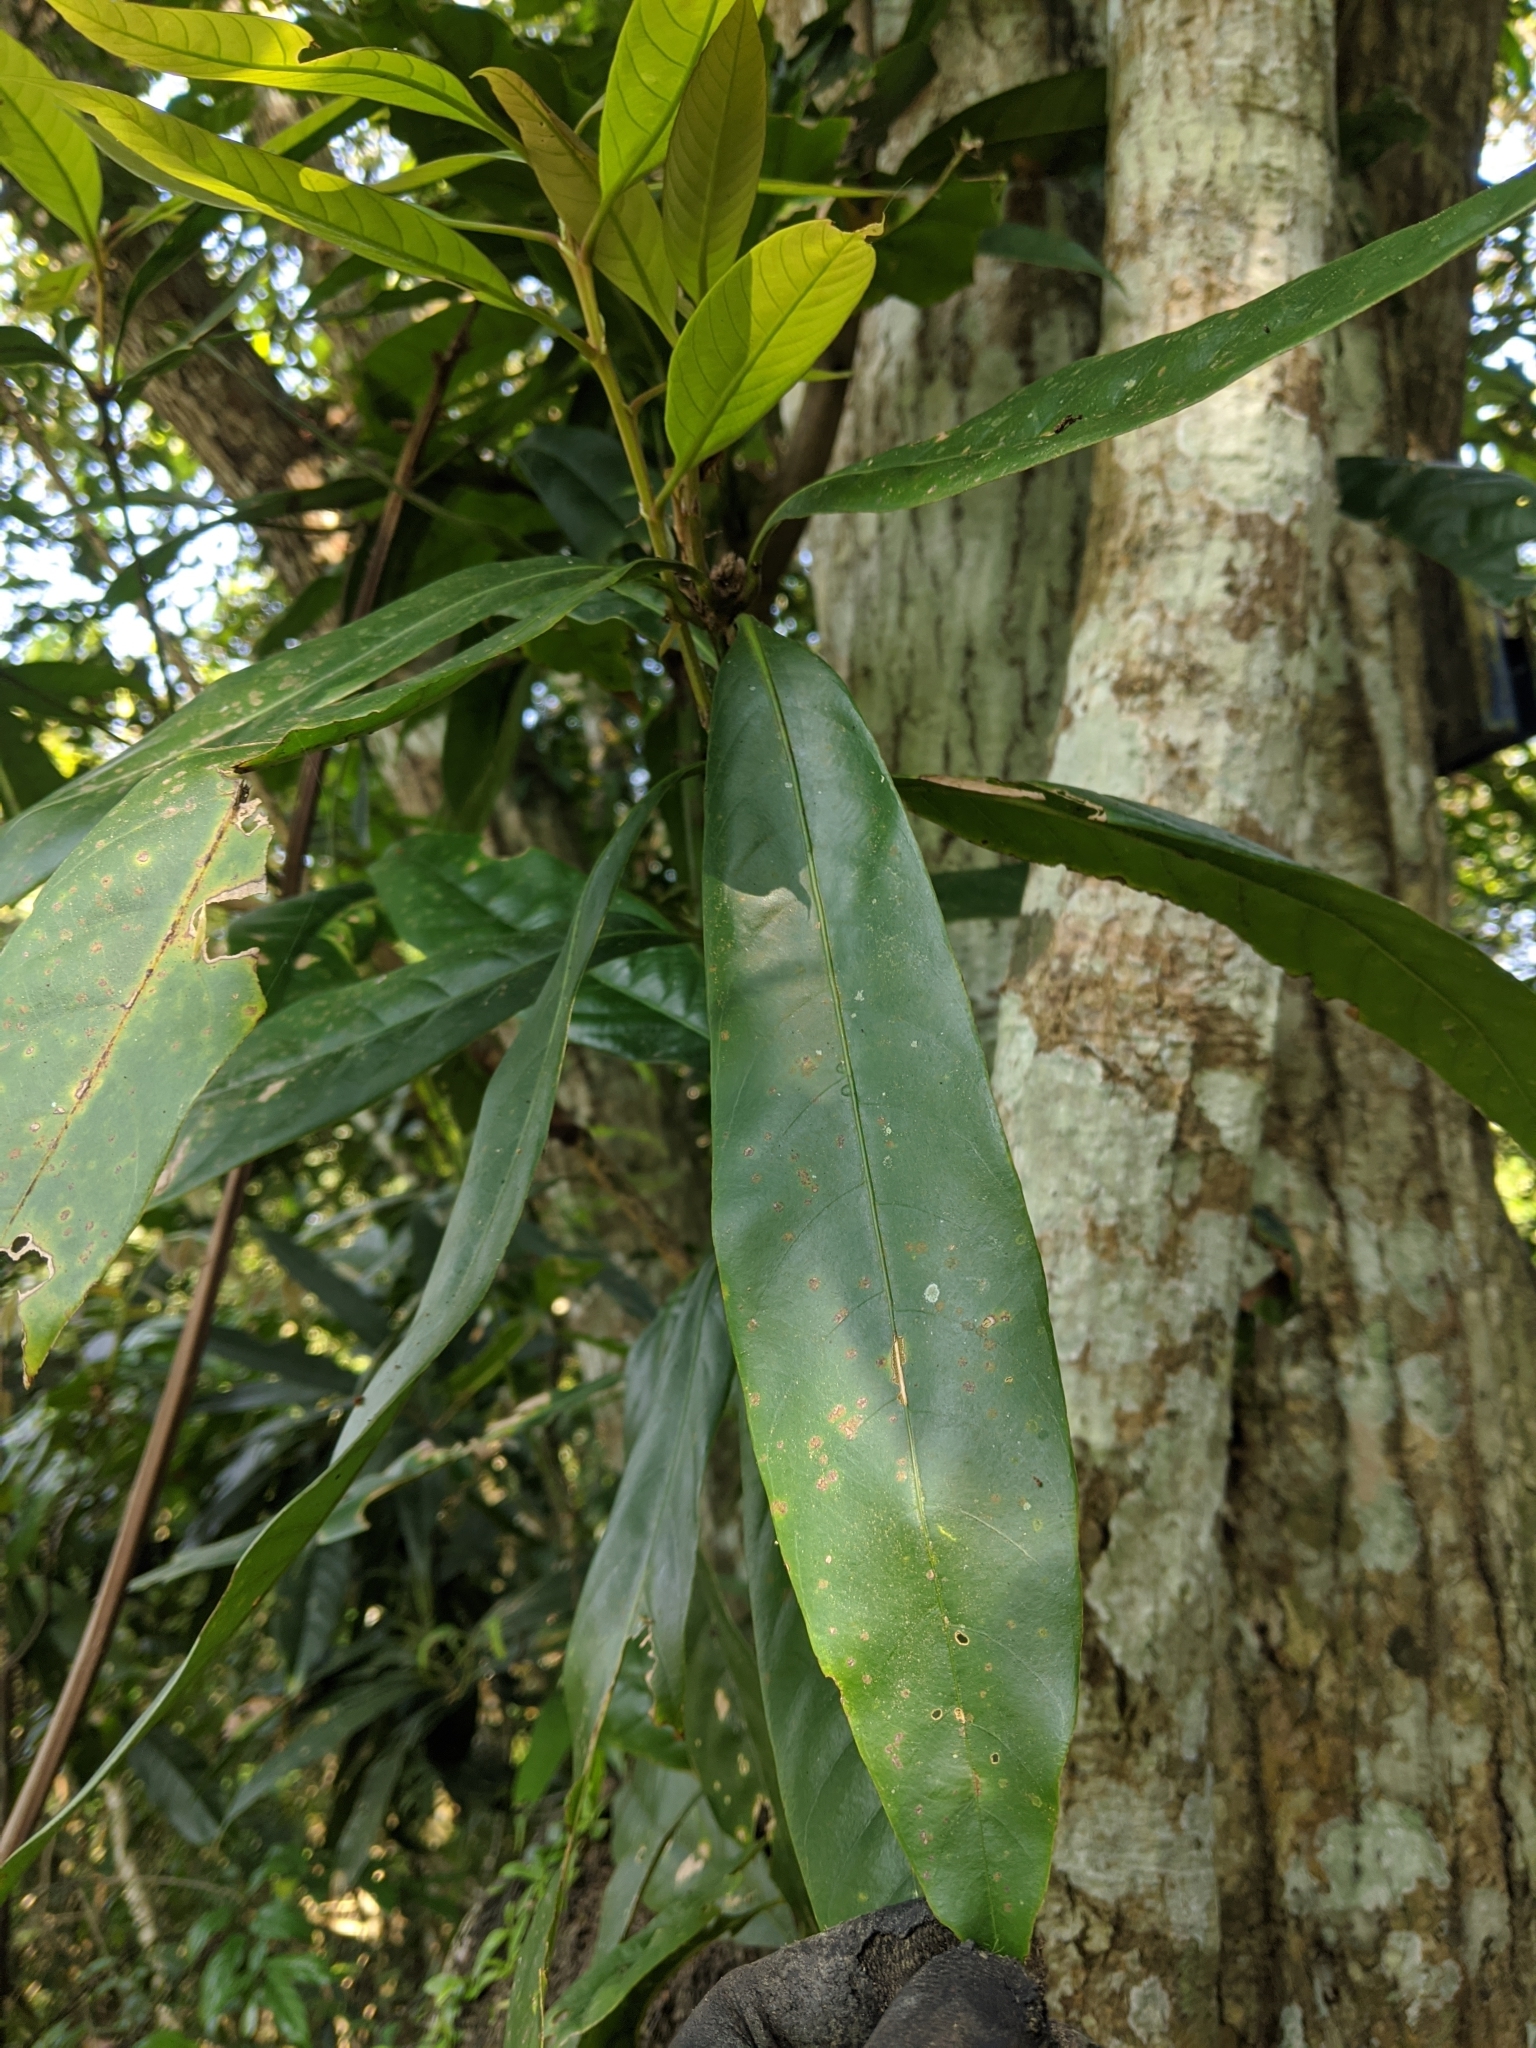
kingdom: Plantae
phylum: Tracheophyta
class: Magnoliopsida
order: Fagales
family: Fagaceae
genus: Lithocarpus
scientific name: Lithocarpus hancei
